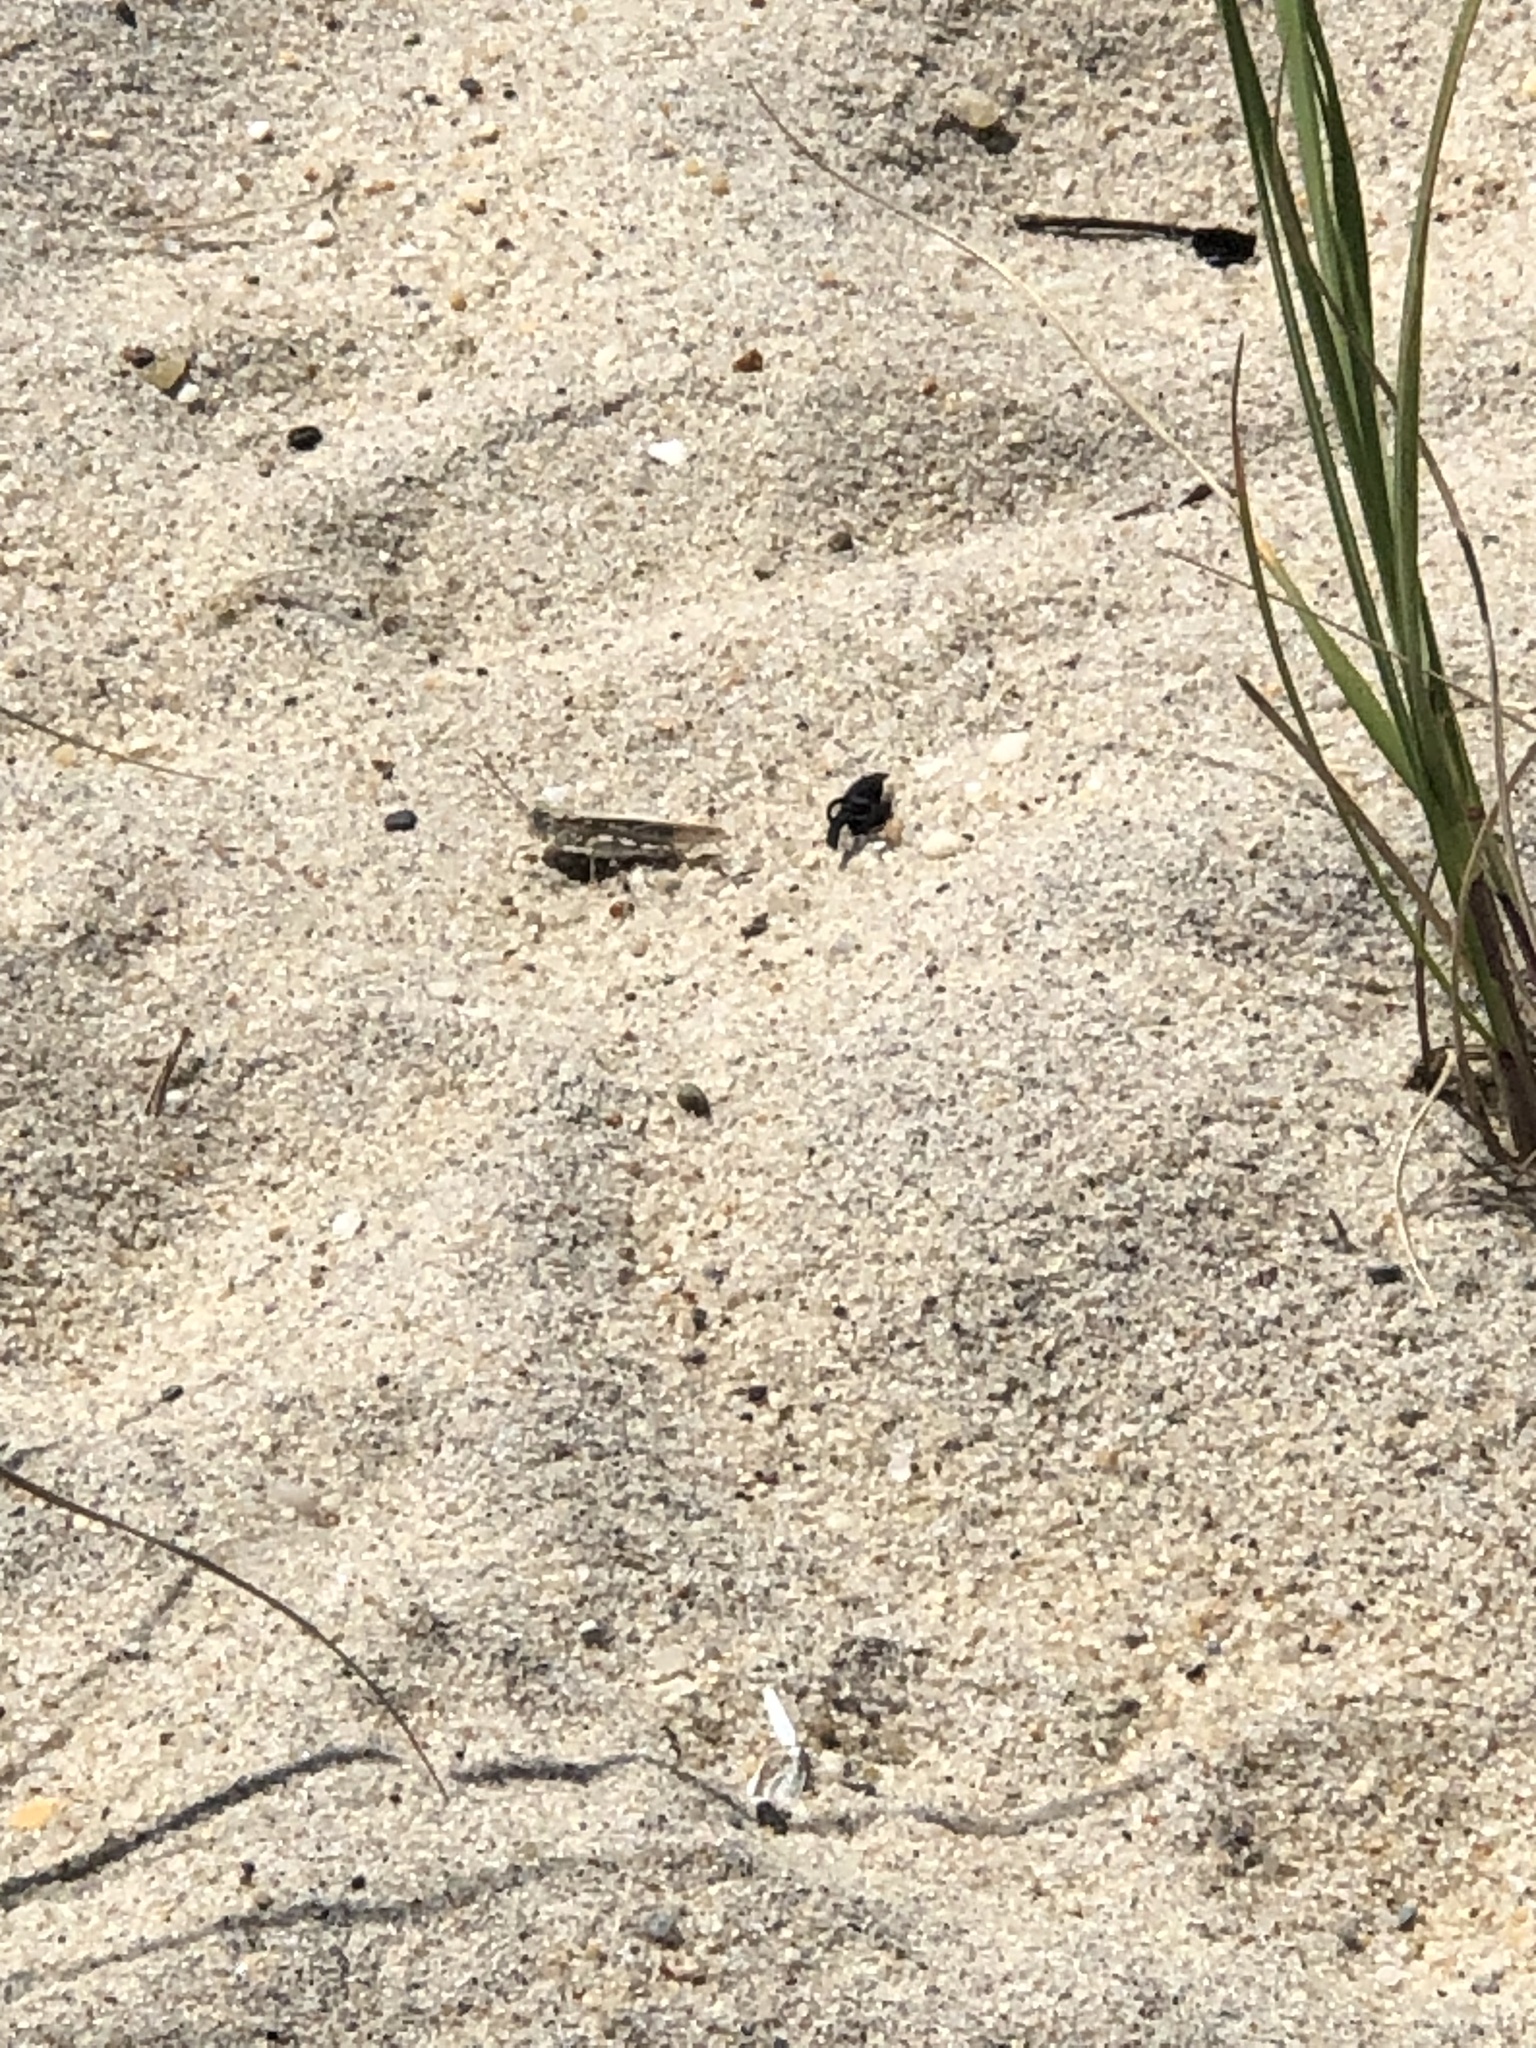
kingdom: Animalia
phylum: Arthropoda
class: Insecta
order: Orthoptera
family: Acrididae
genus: Trimerotropis
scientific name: Trimerotropis maritima
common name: Seaside locust
